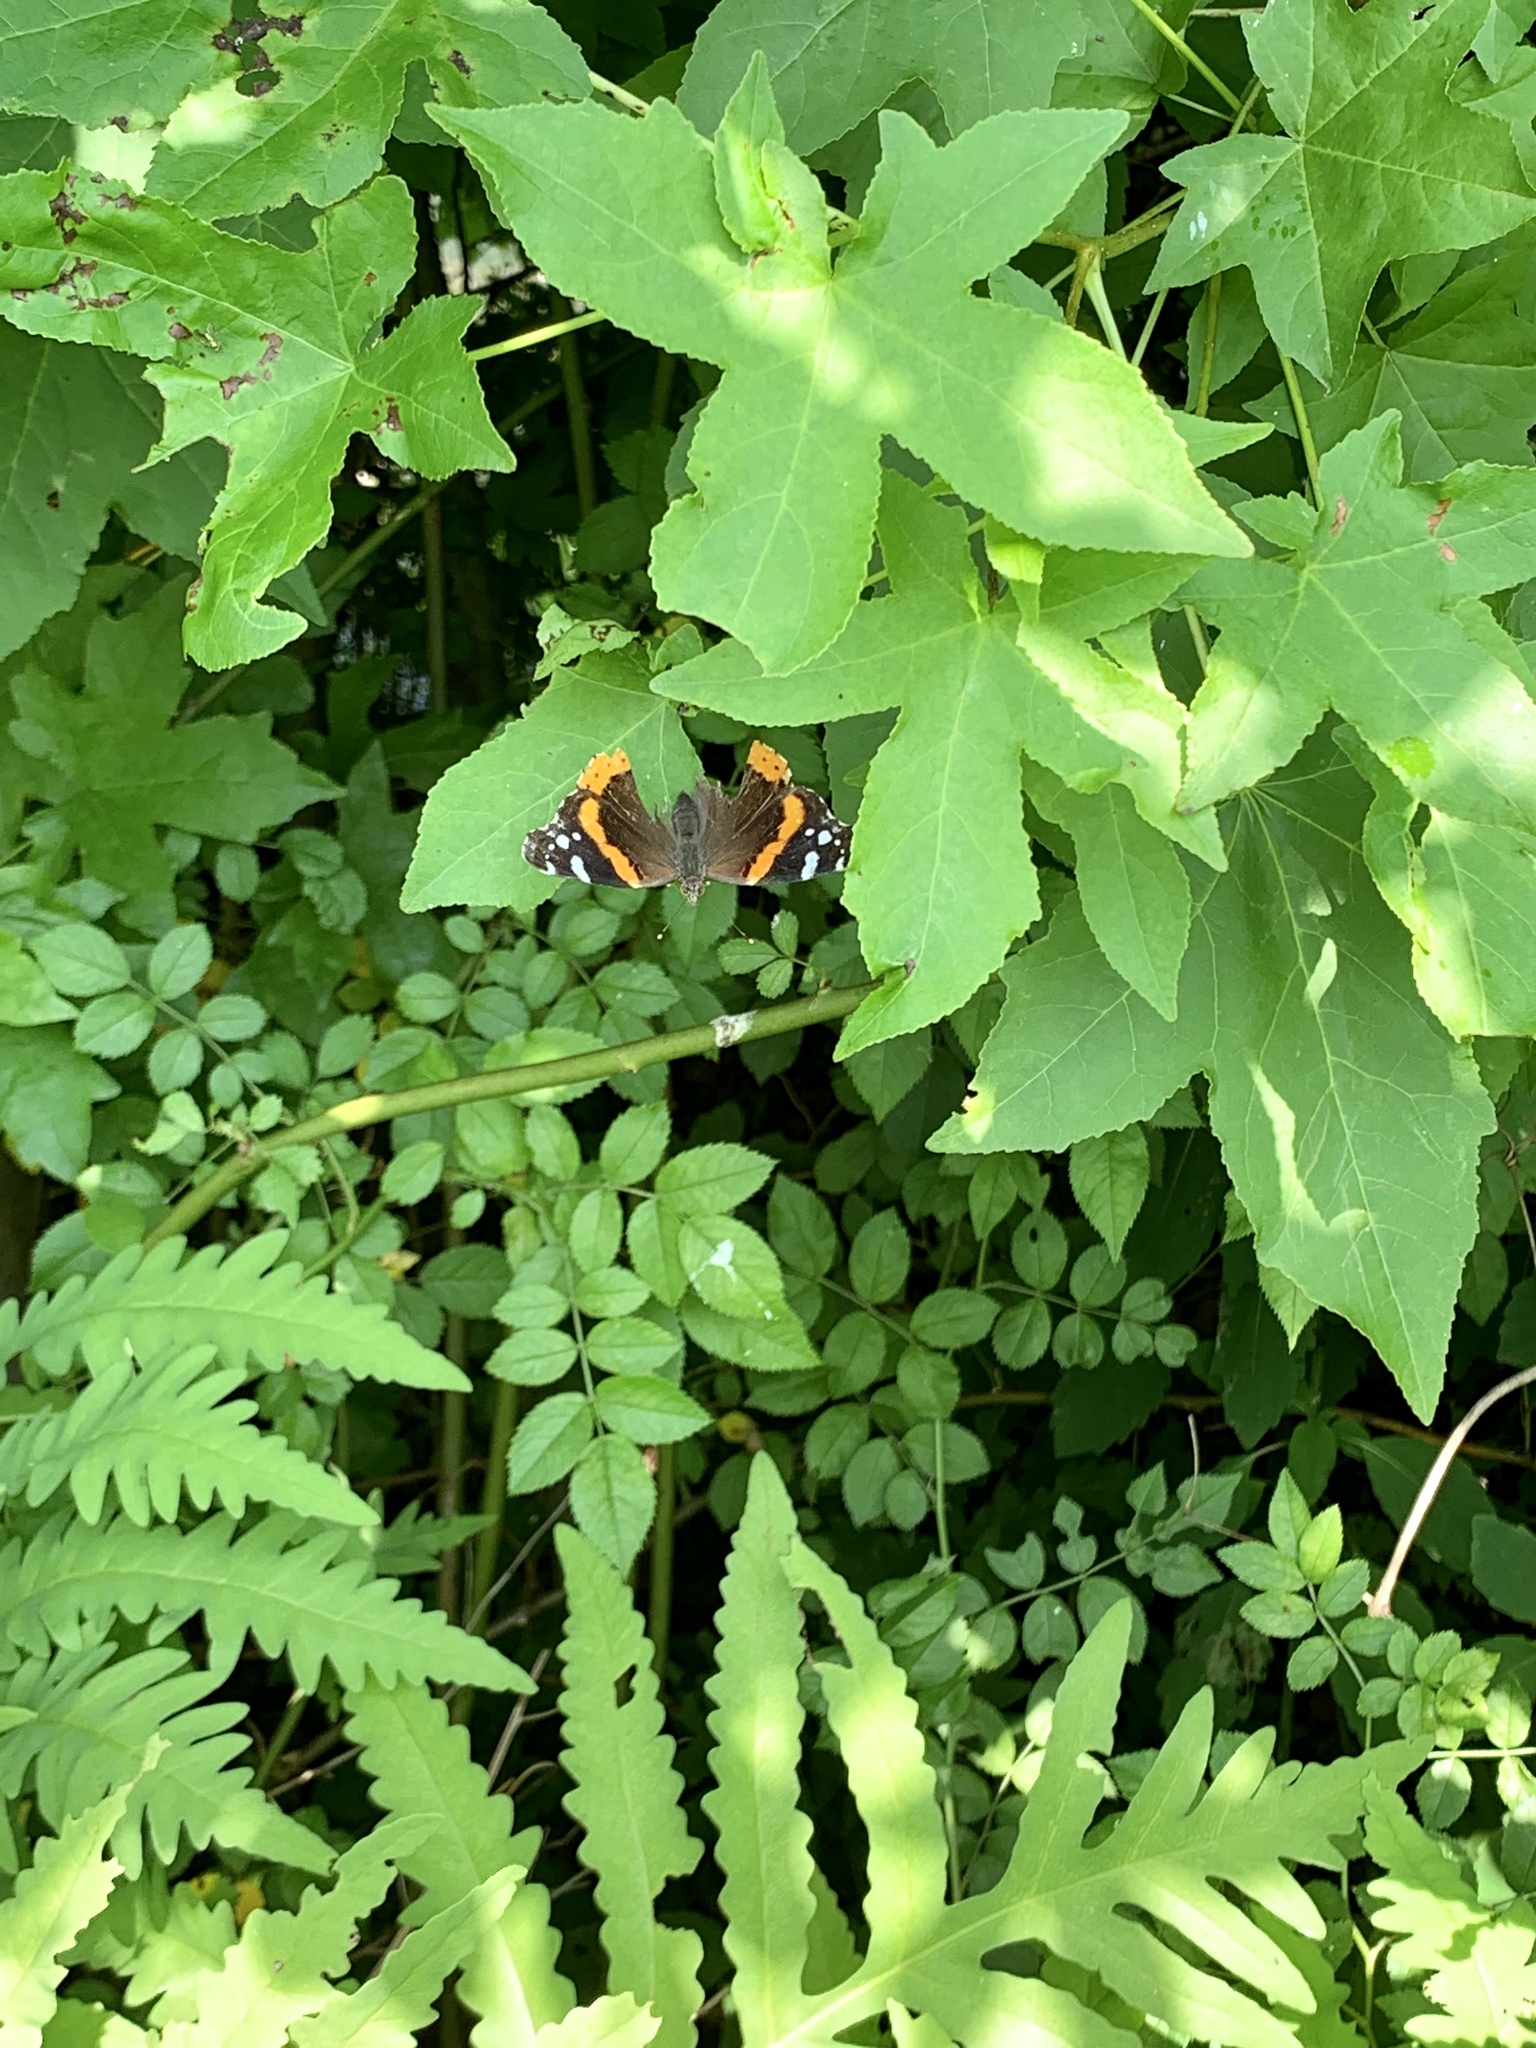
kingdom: Animalia
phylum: Arthropoda
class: Insecta
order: Lepidoptera
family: Nymphalidae
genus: Vanessa
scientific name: Vanessa atalanta
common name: Red admiral
